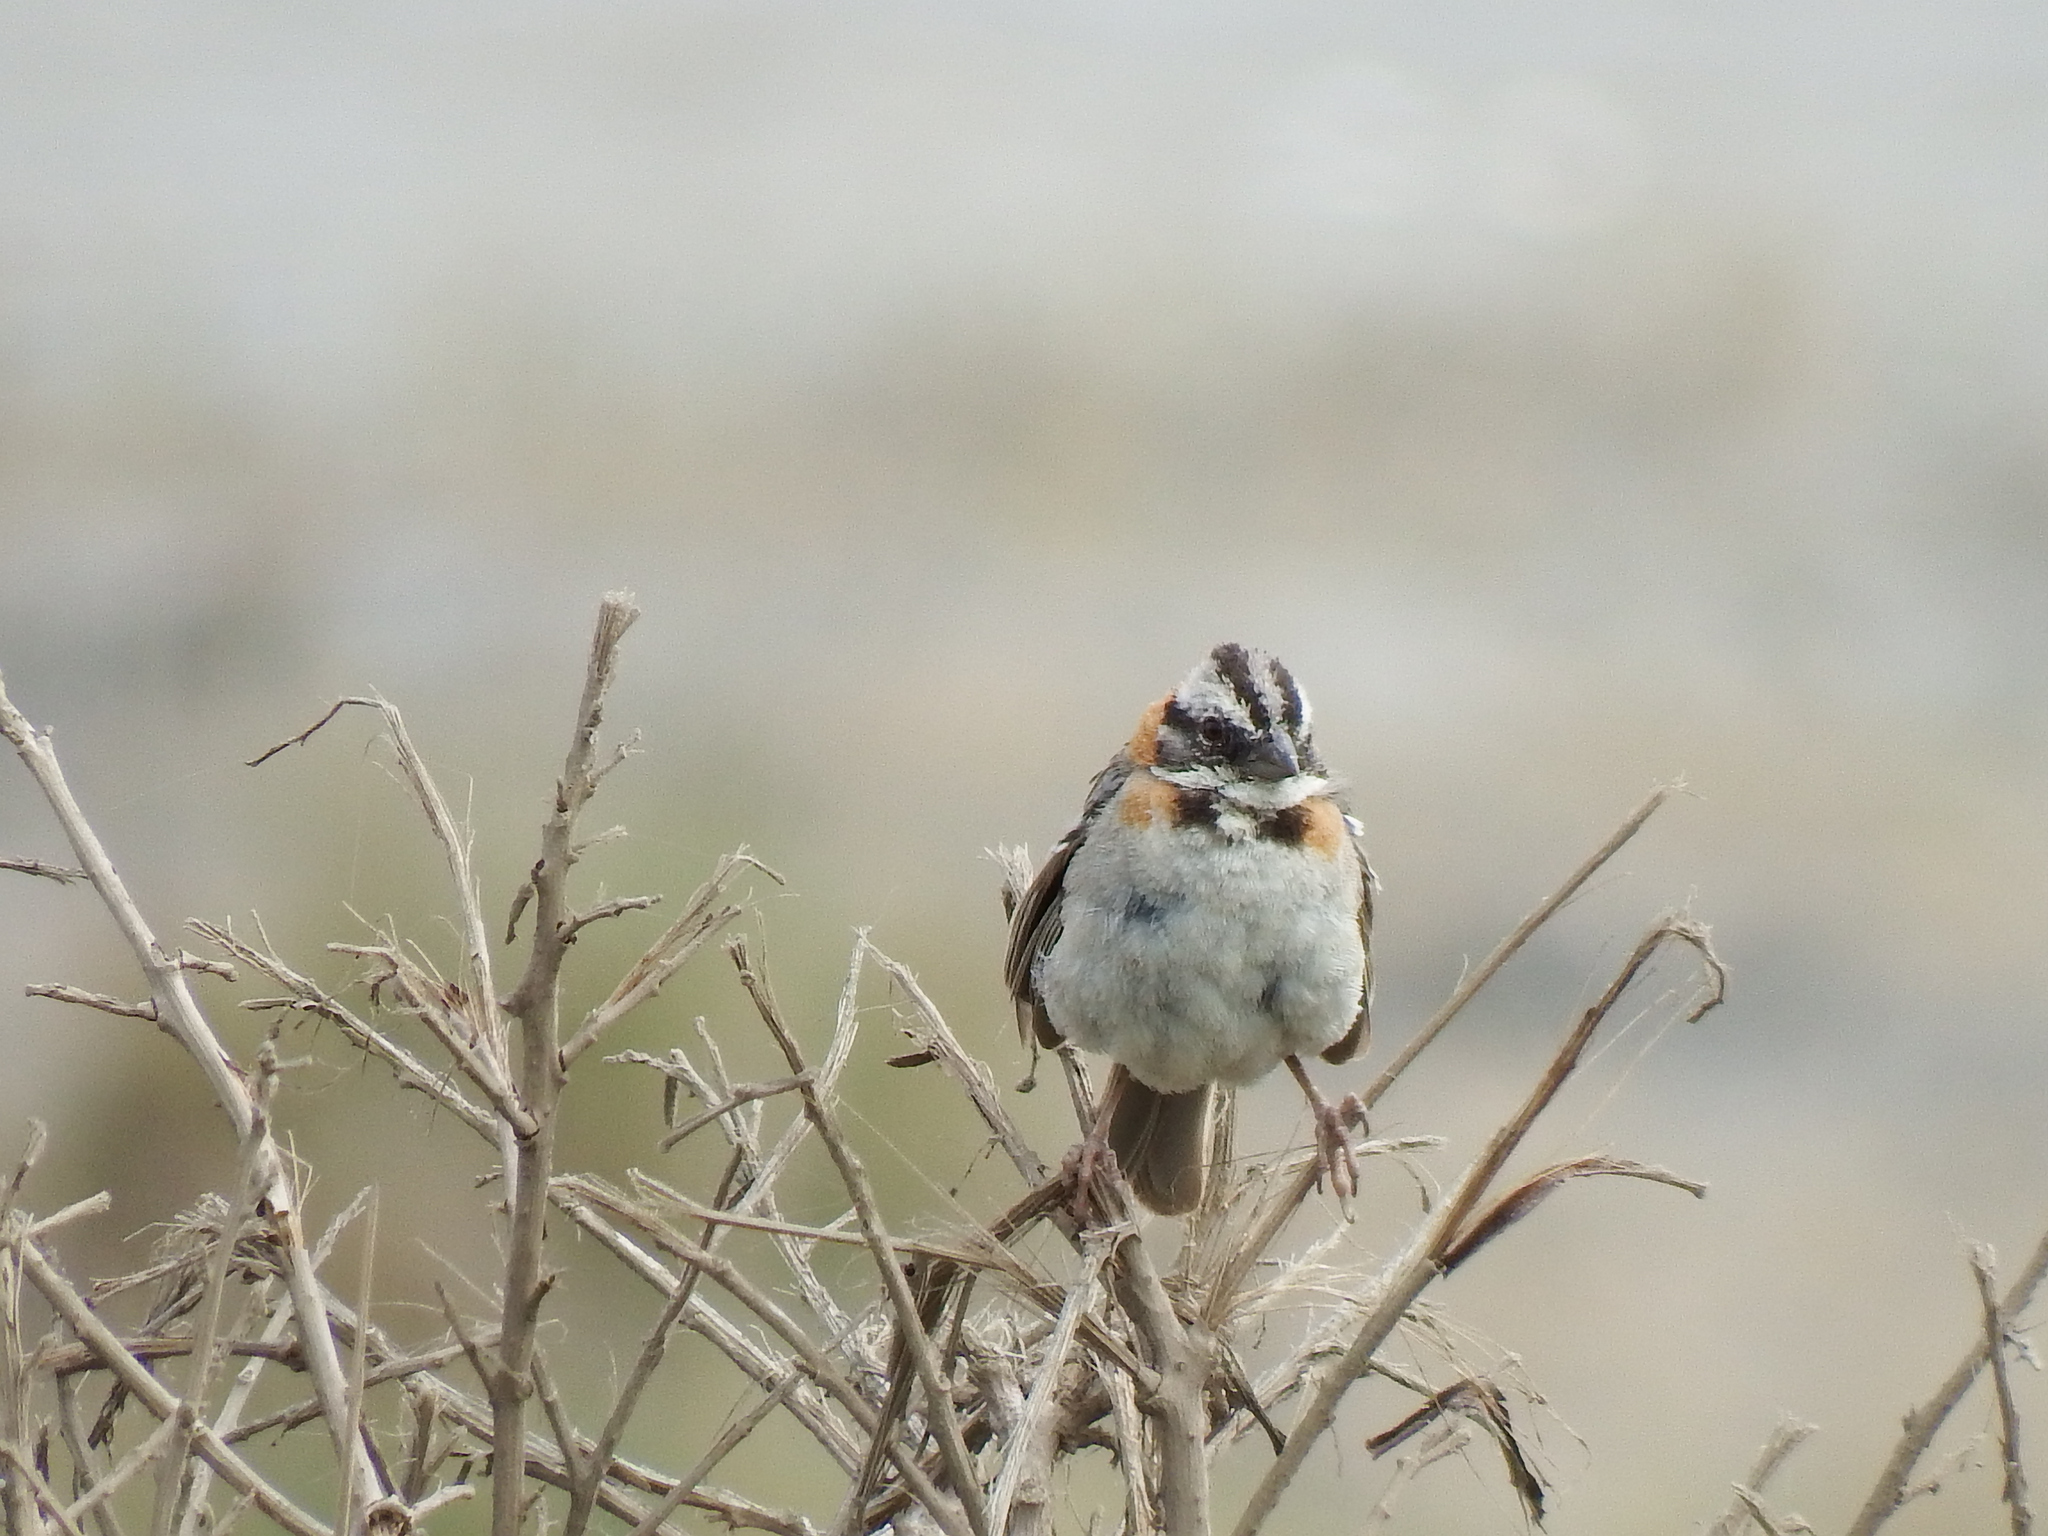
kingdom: Animalia
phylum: Chordata
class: Aves
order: Passeriformes
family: Passerellidae
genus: Zonotrichia
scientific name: Zonotrichia capensis
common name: Rufous-collared sparrow
